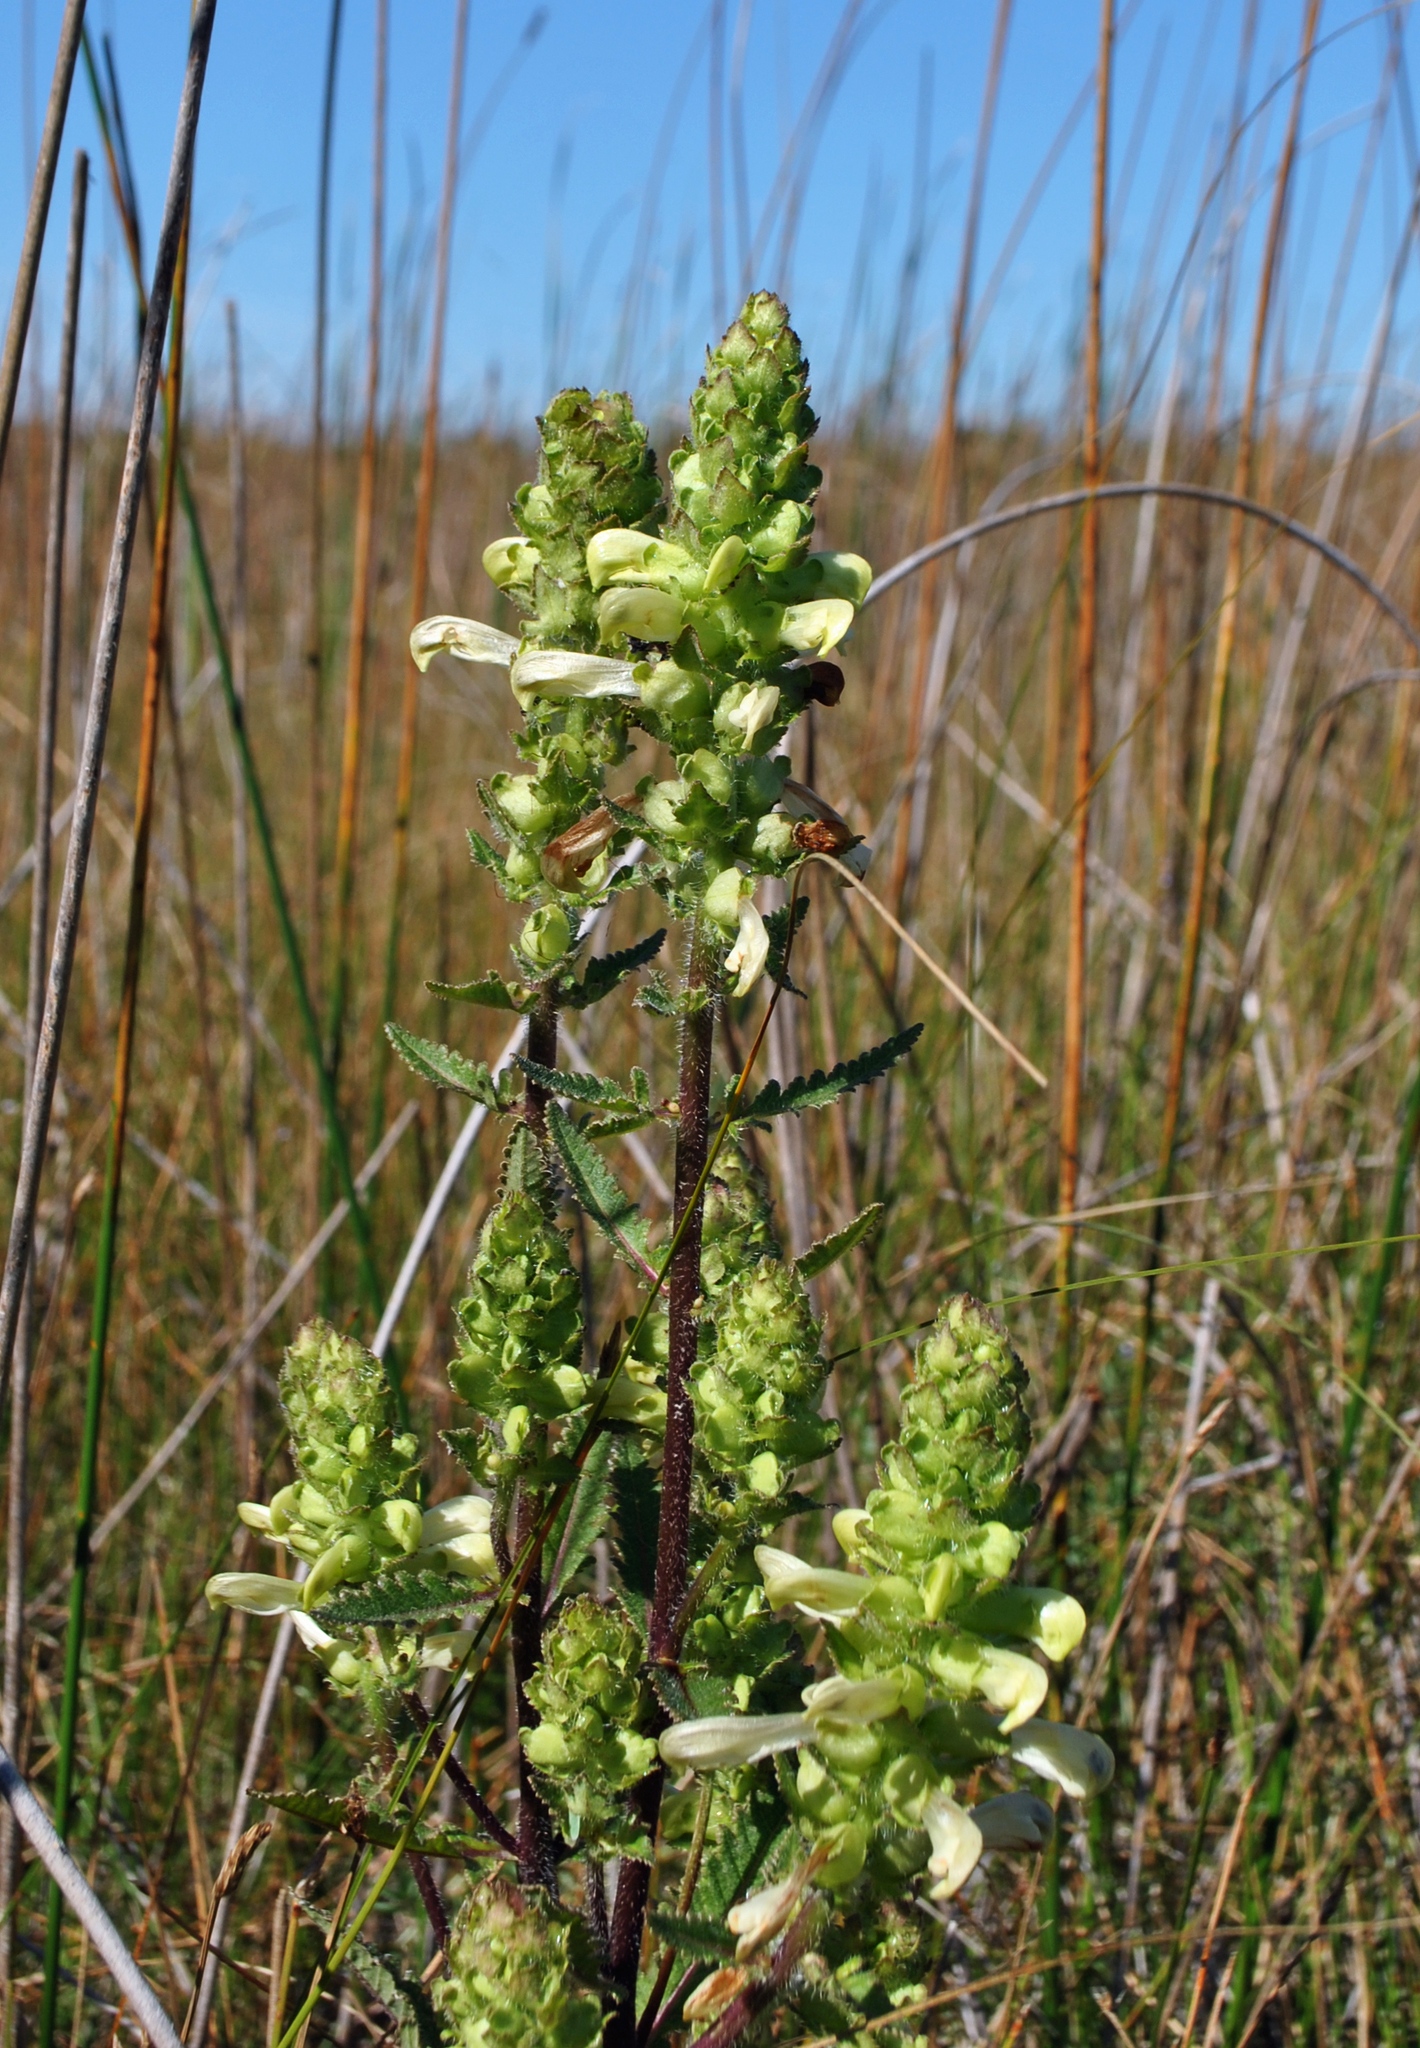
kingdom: Plantae
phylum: Tracheophyta
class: Magnoliopsida
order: Lamiales
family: Orobanchaceae
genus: Pedicularis
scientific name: Pedicularis lanceolata
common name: Swamp lousewort
